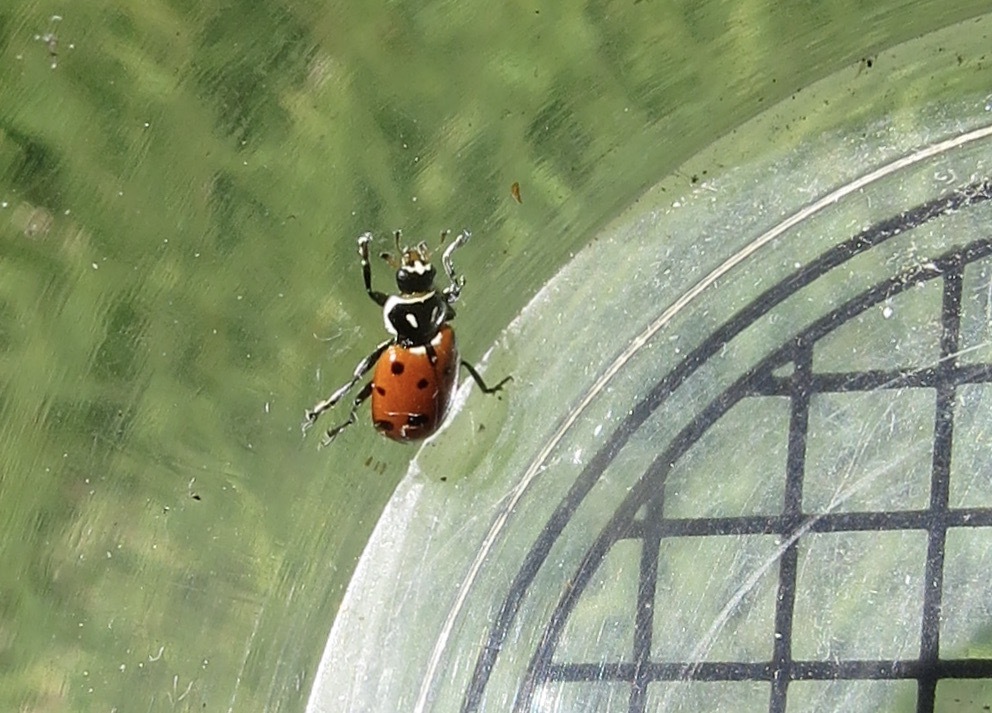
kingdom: Animalia
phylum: Arthropoda
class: Insecta
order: Coleoptera
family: Coccinellidae
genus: Hippodamia
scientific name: Hippodamia convergens
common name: Convergent lady beetle
